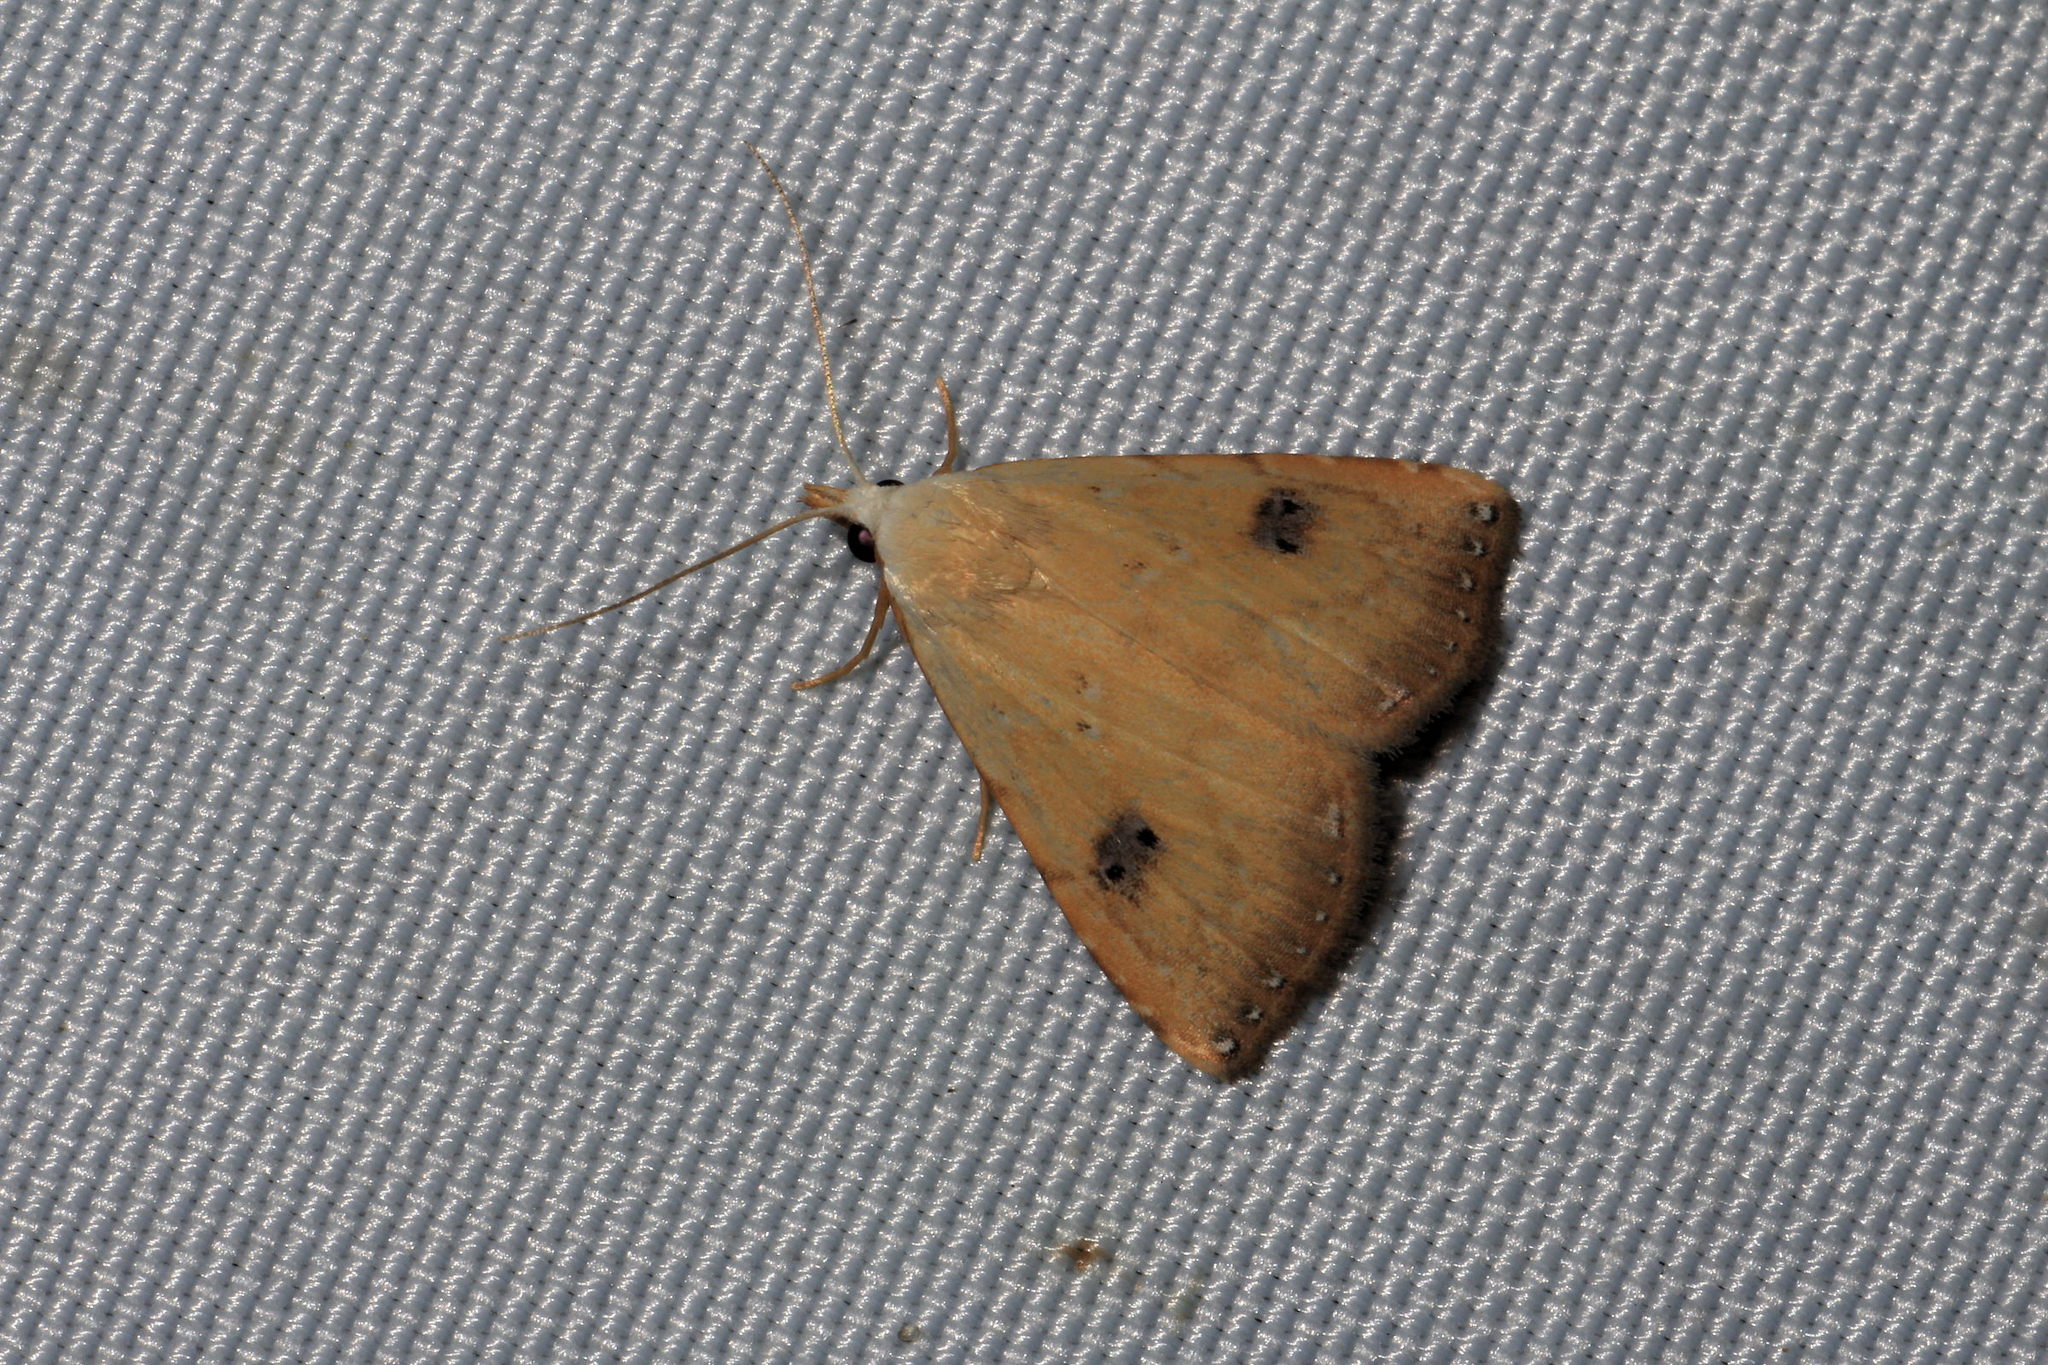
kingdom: Animalia
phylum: Arthropoda
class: Insecta
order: Lepidoptera
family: Erebidae
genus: Rivula
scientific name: Rivula sericealis
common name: Straw dot
